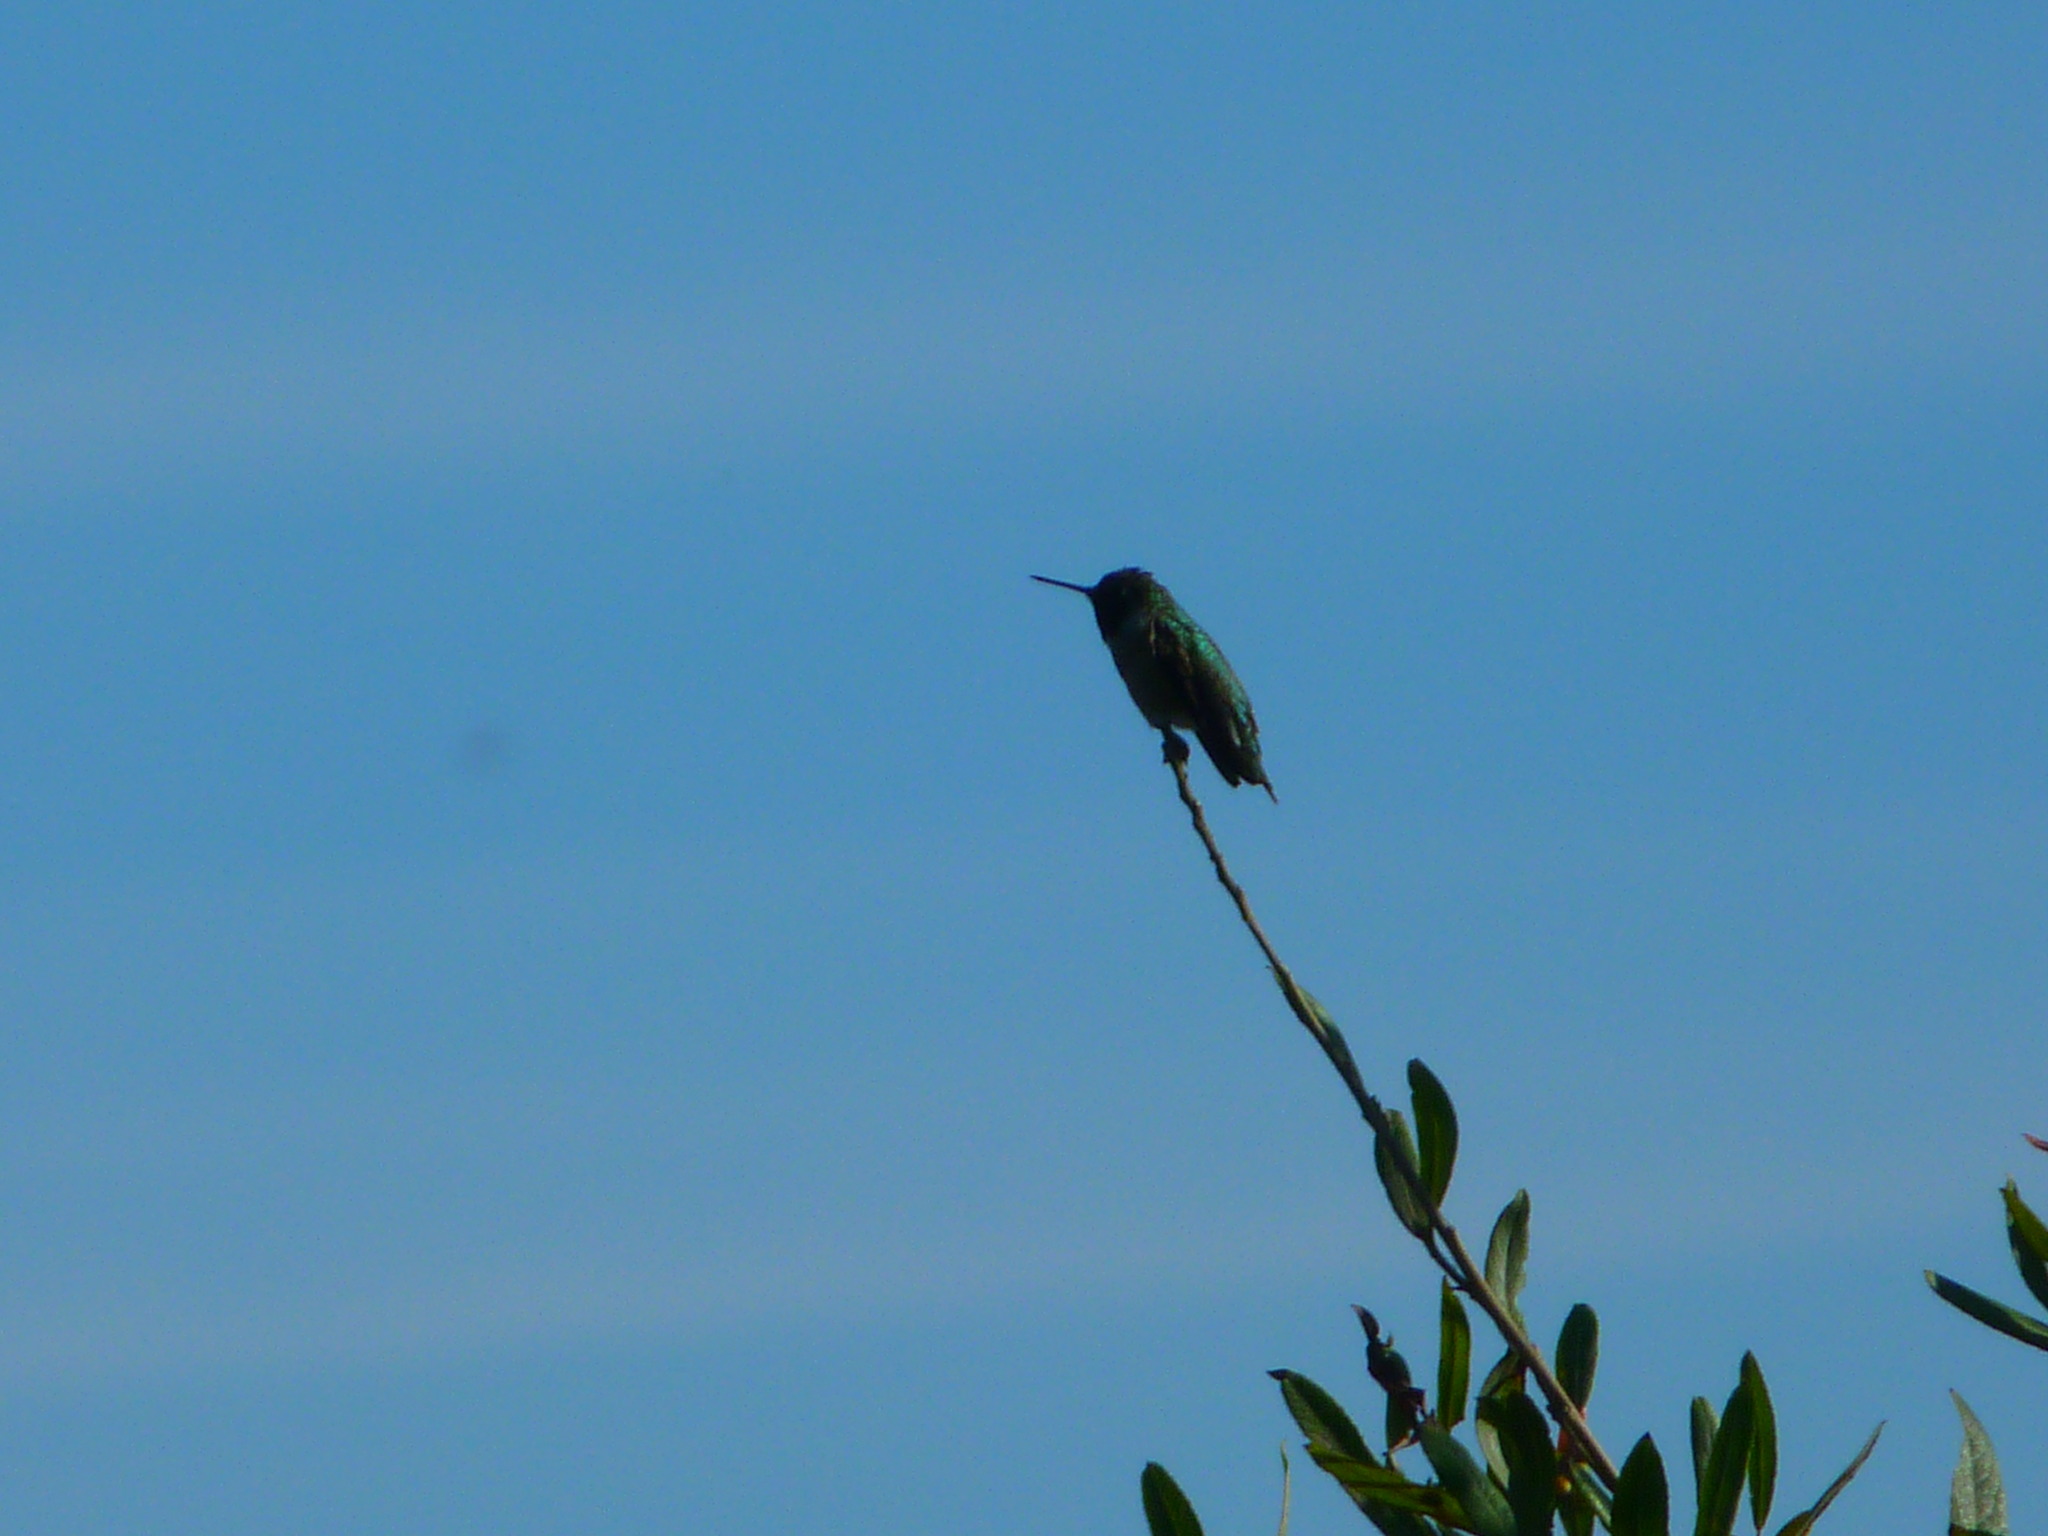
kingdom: Animalia
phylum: Chordata
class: Aves
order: Apodiformes
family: Trochilidae
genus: Calypte
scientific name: Calypte anna
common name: Anna's hummingbird
